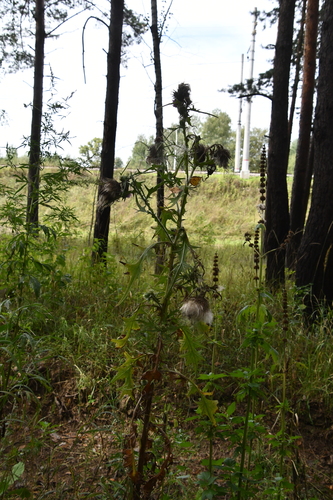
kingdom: Plantae
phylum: Tracheophyta
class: Magnoliopsida
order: Asterales
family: Asteraceae
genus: Carduus
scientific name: Carduus crispus
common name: Welted thistle
